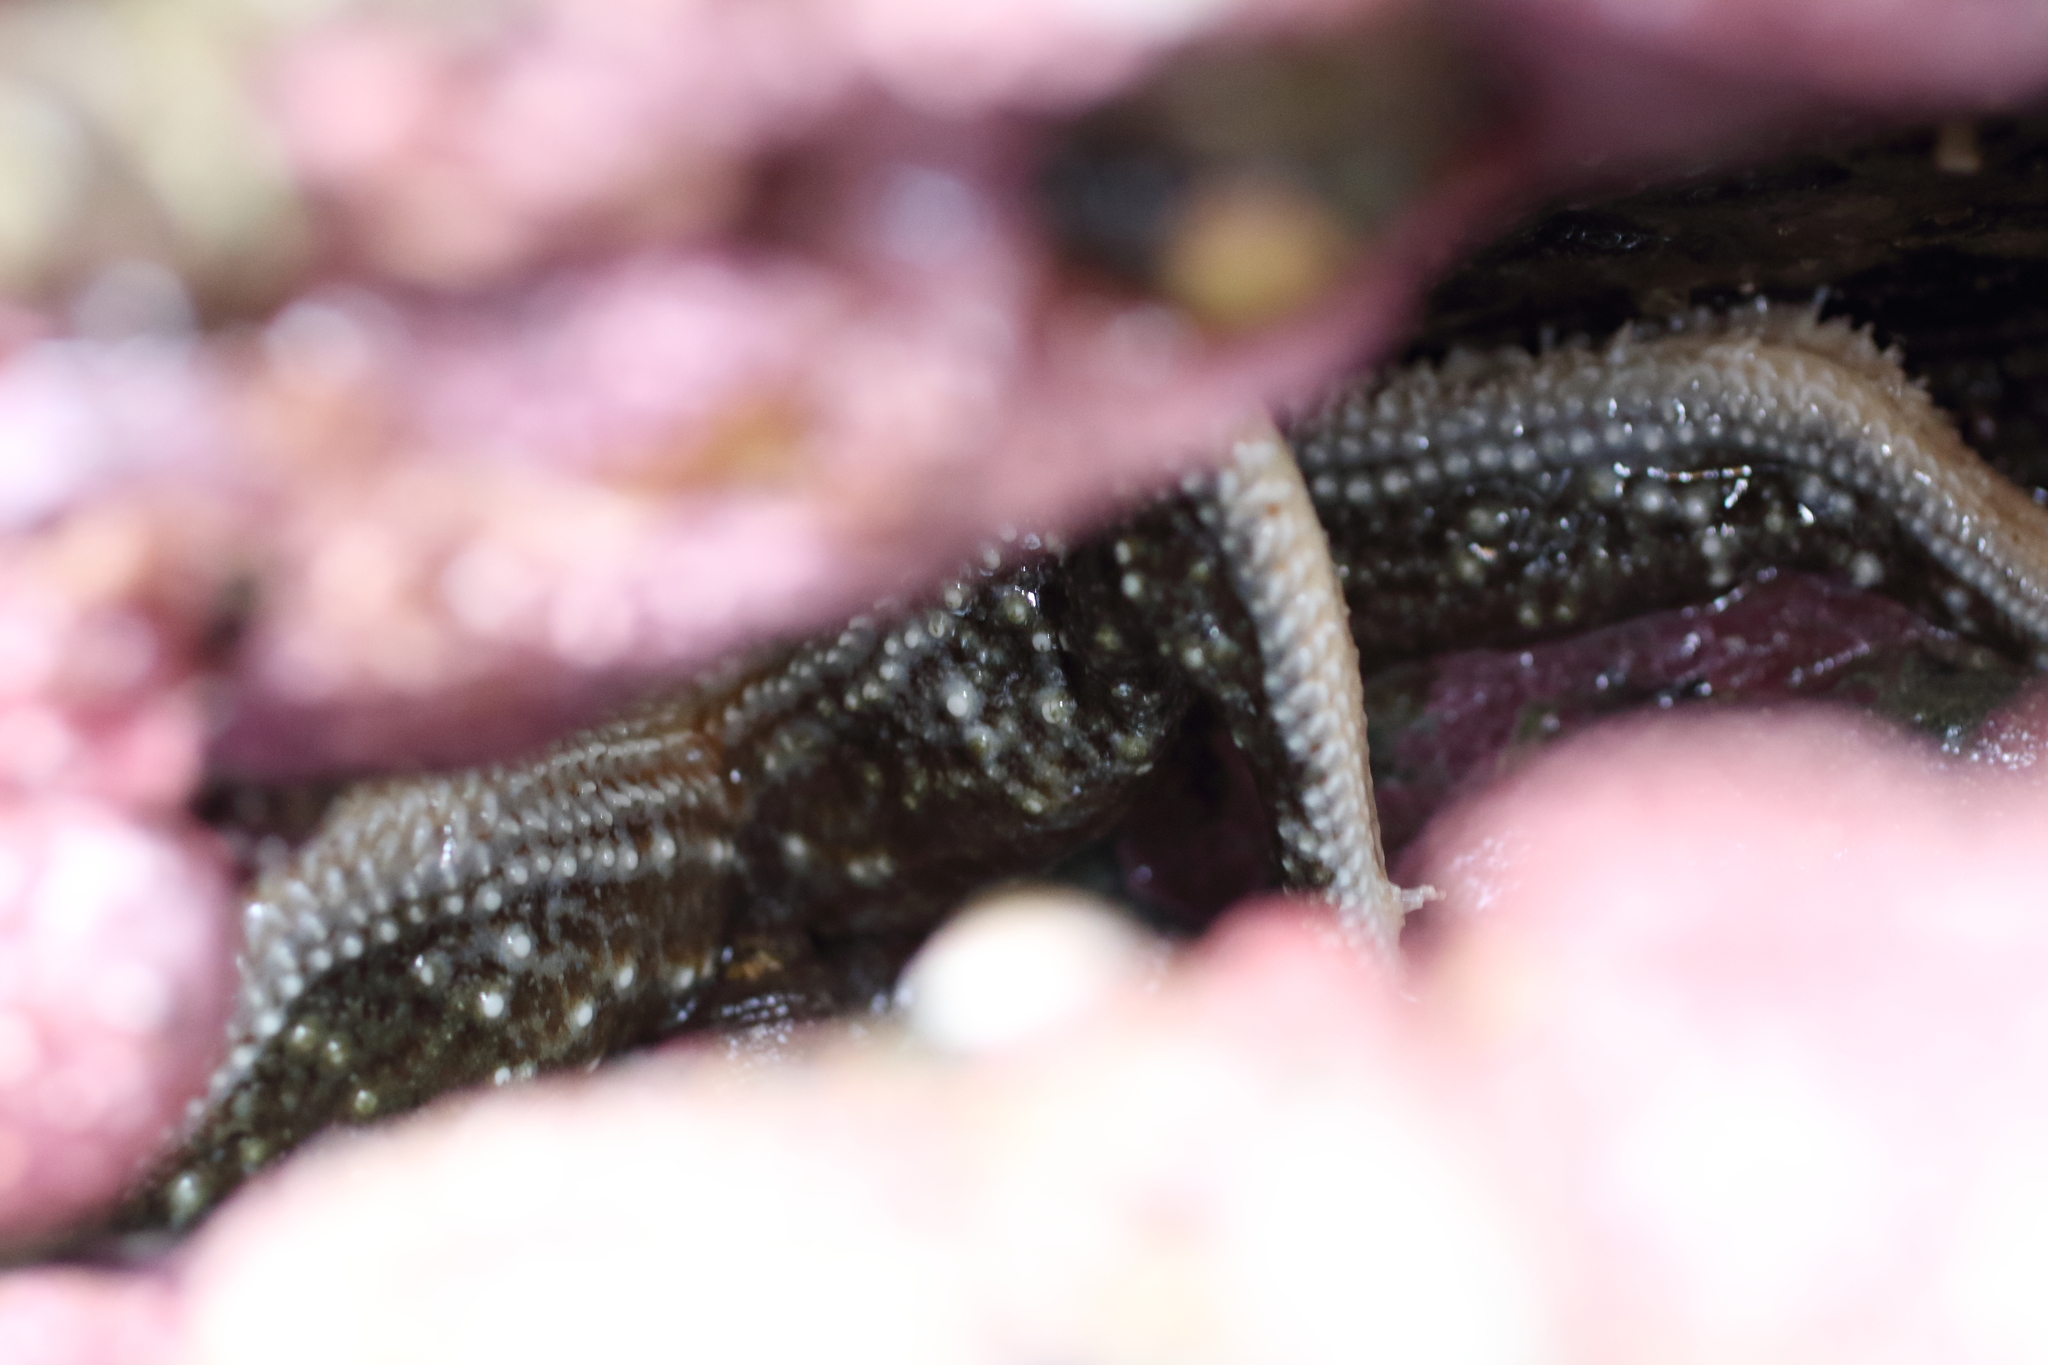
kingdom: Animalia
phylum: Echinodermata
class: Asteroidea
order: Forcipulatida
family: Asteriidae
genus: Evasterias
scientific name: Evasterias troschelii
